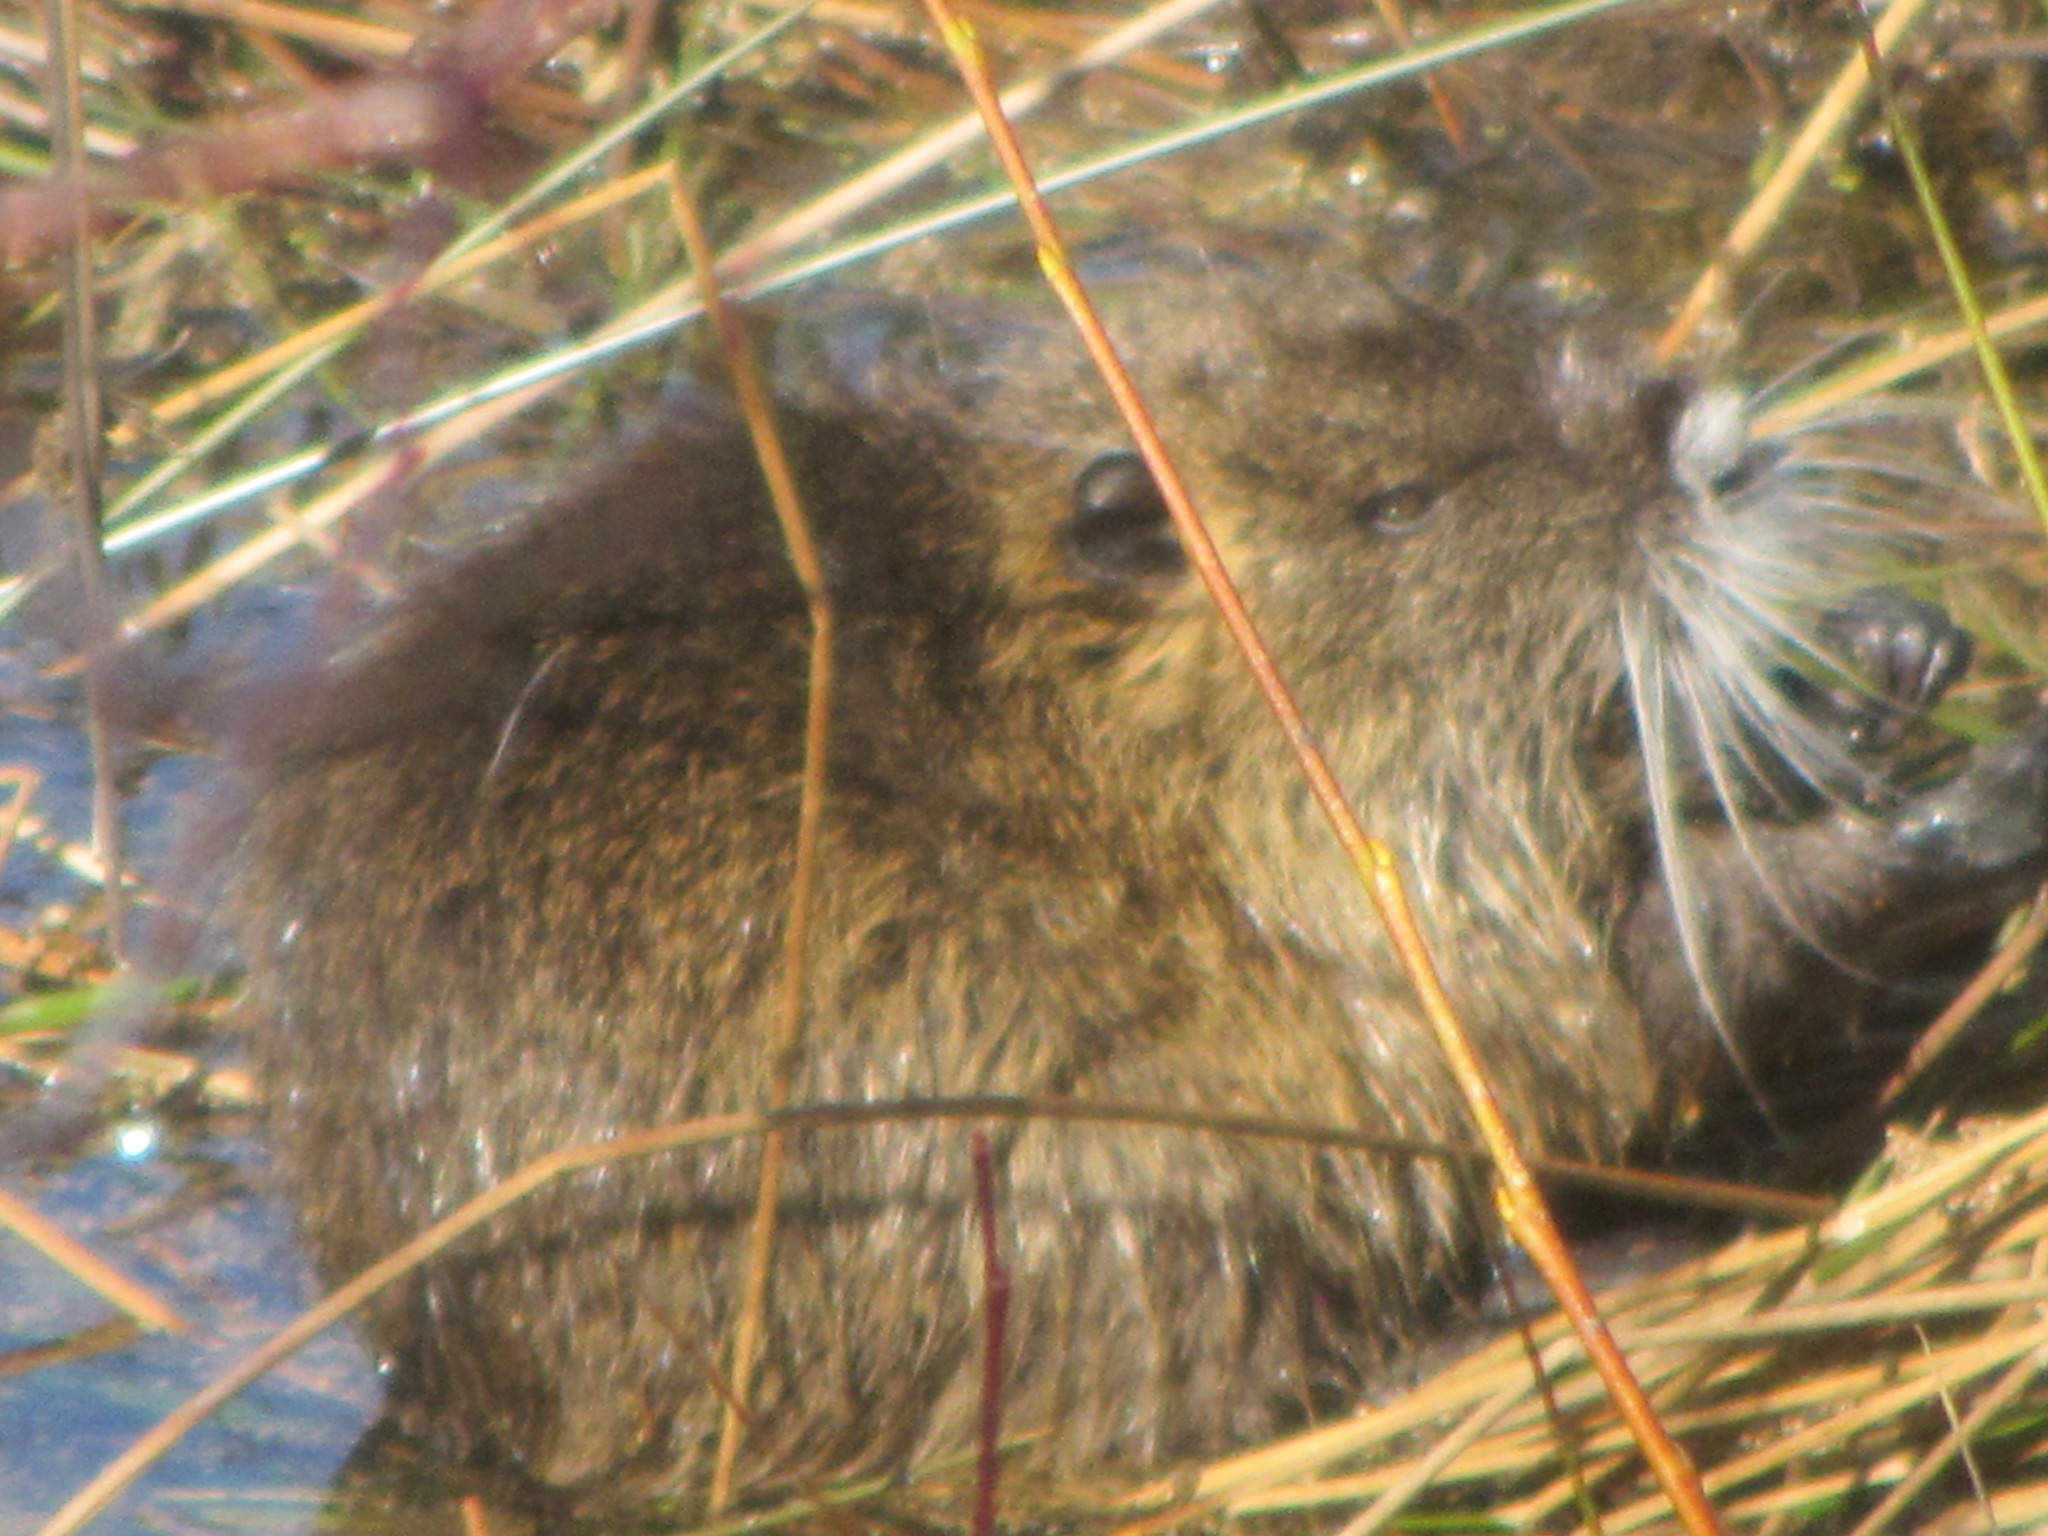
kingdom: Animalia
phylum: Chordata
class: Mammalia
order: Rodentia
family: Myocastoridae
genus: Myocastor
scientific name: Myocastor coypus
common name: Coypu
